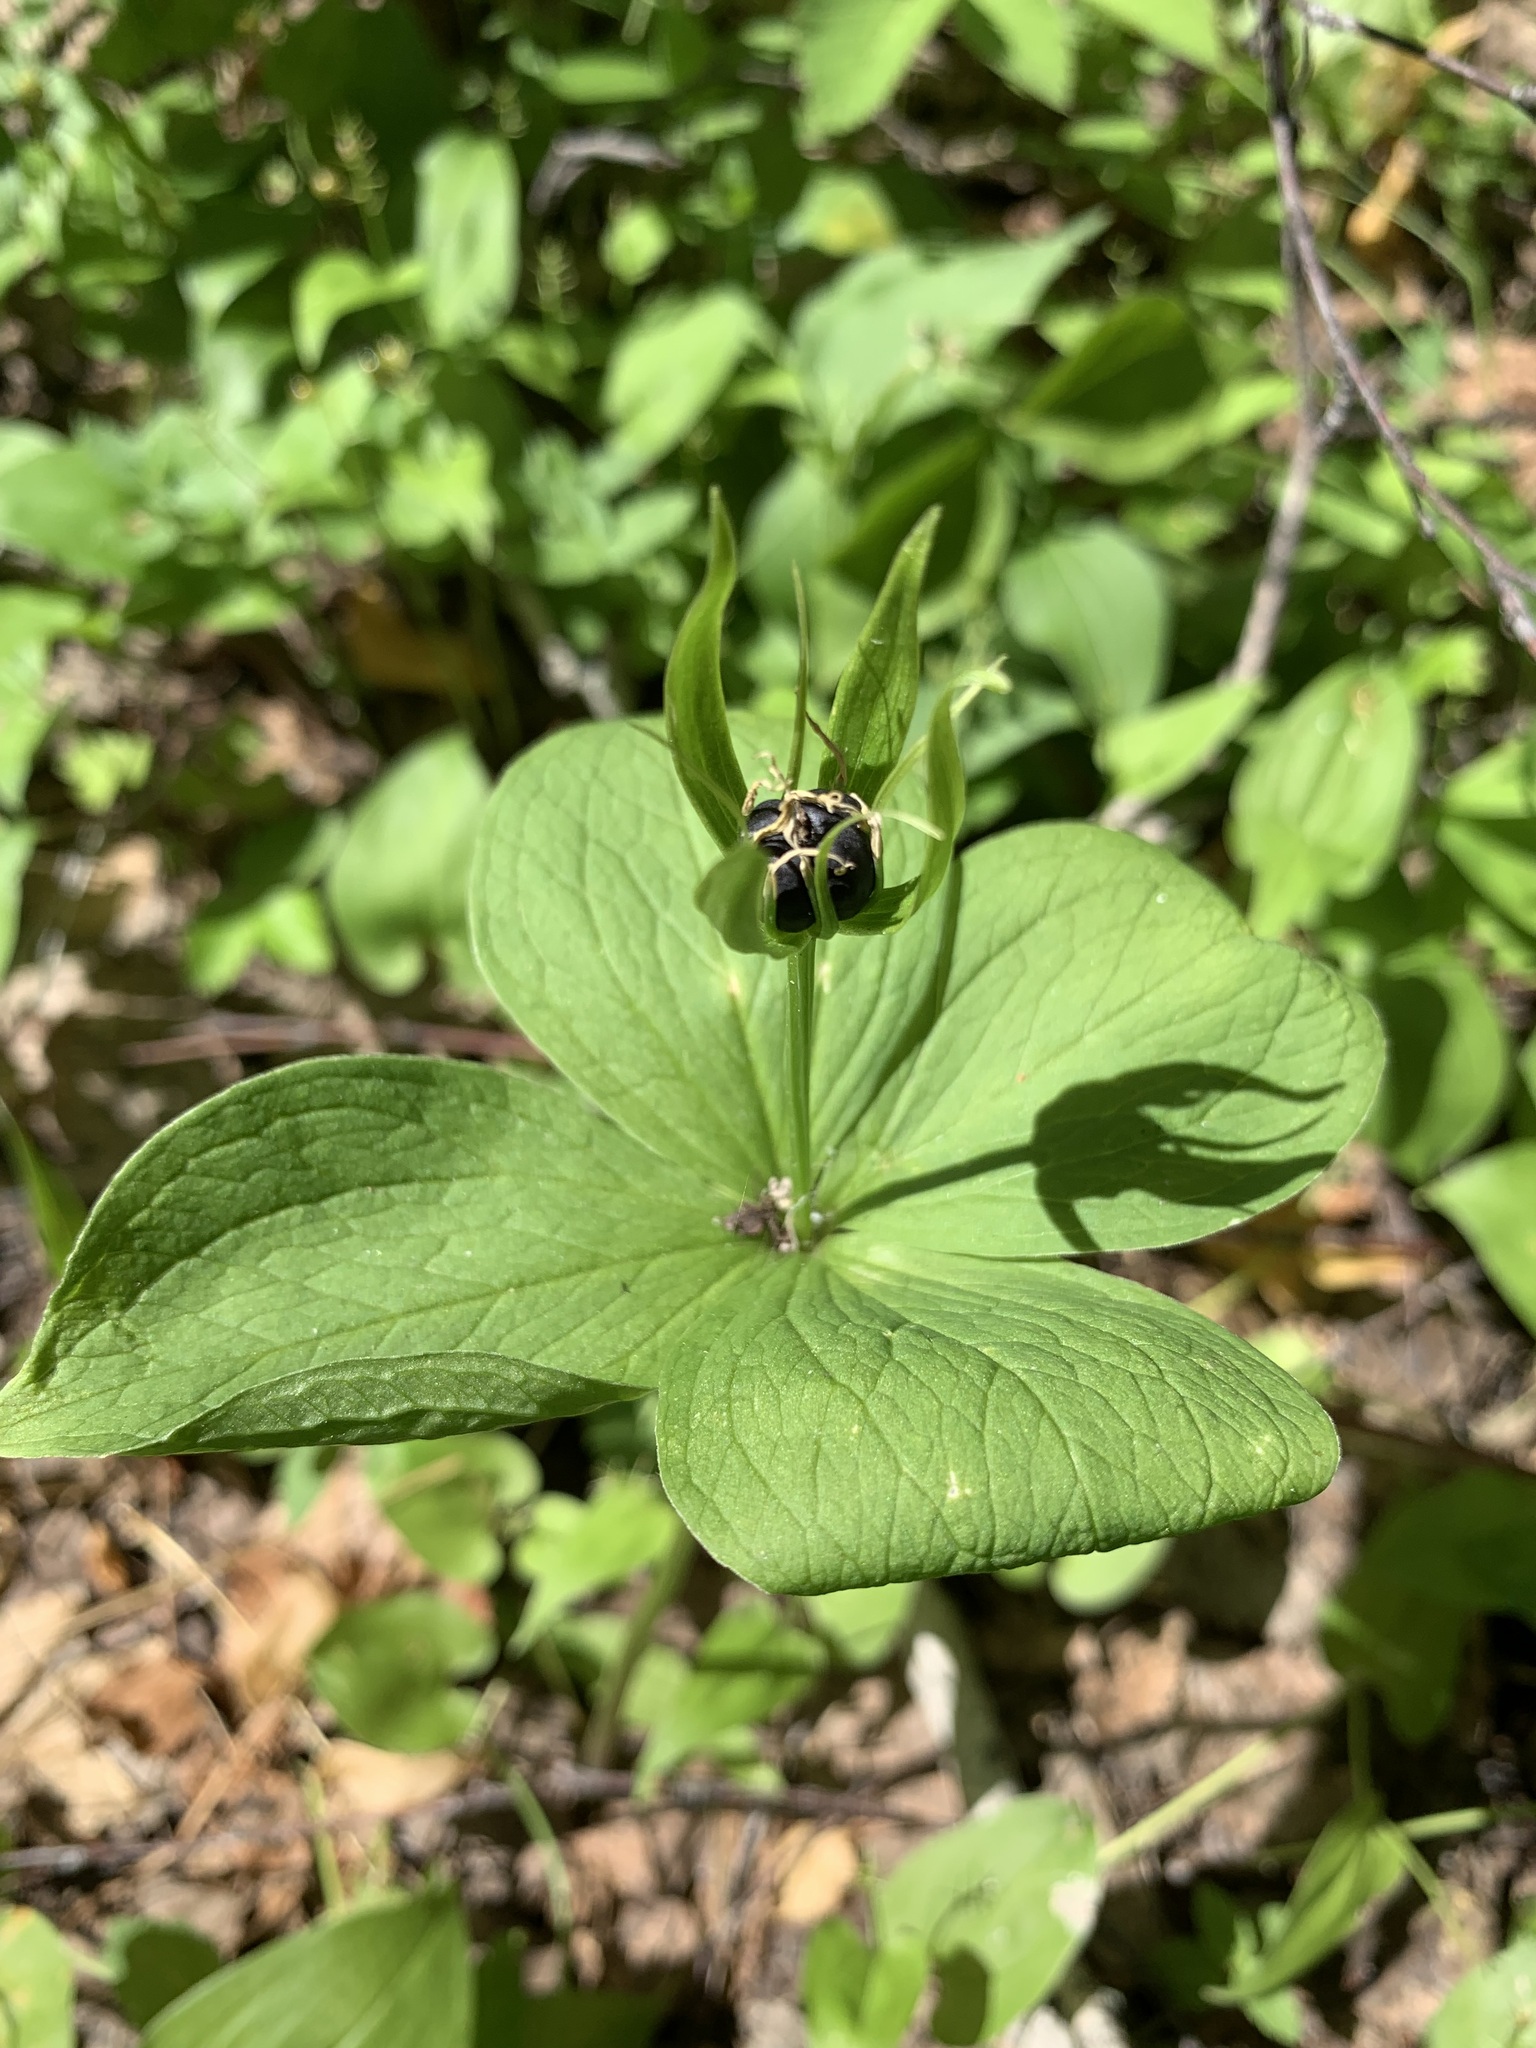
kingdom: Plantae
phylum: Tracheophyta
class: Liliopsida
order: Liliales
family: Melanthiaceae
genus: Paris
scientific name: Paris quadrifolia
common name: Herb-paris
